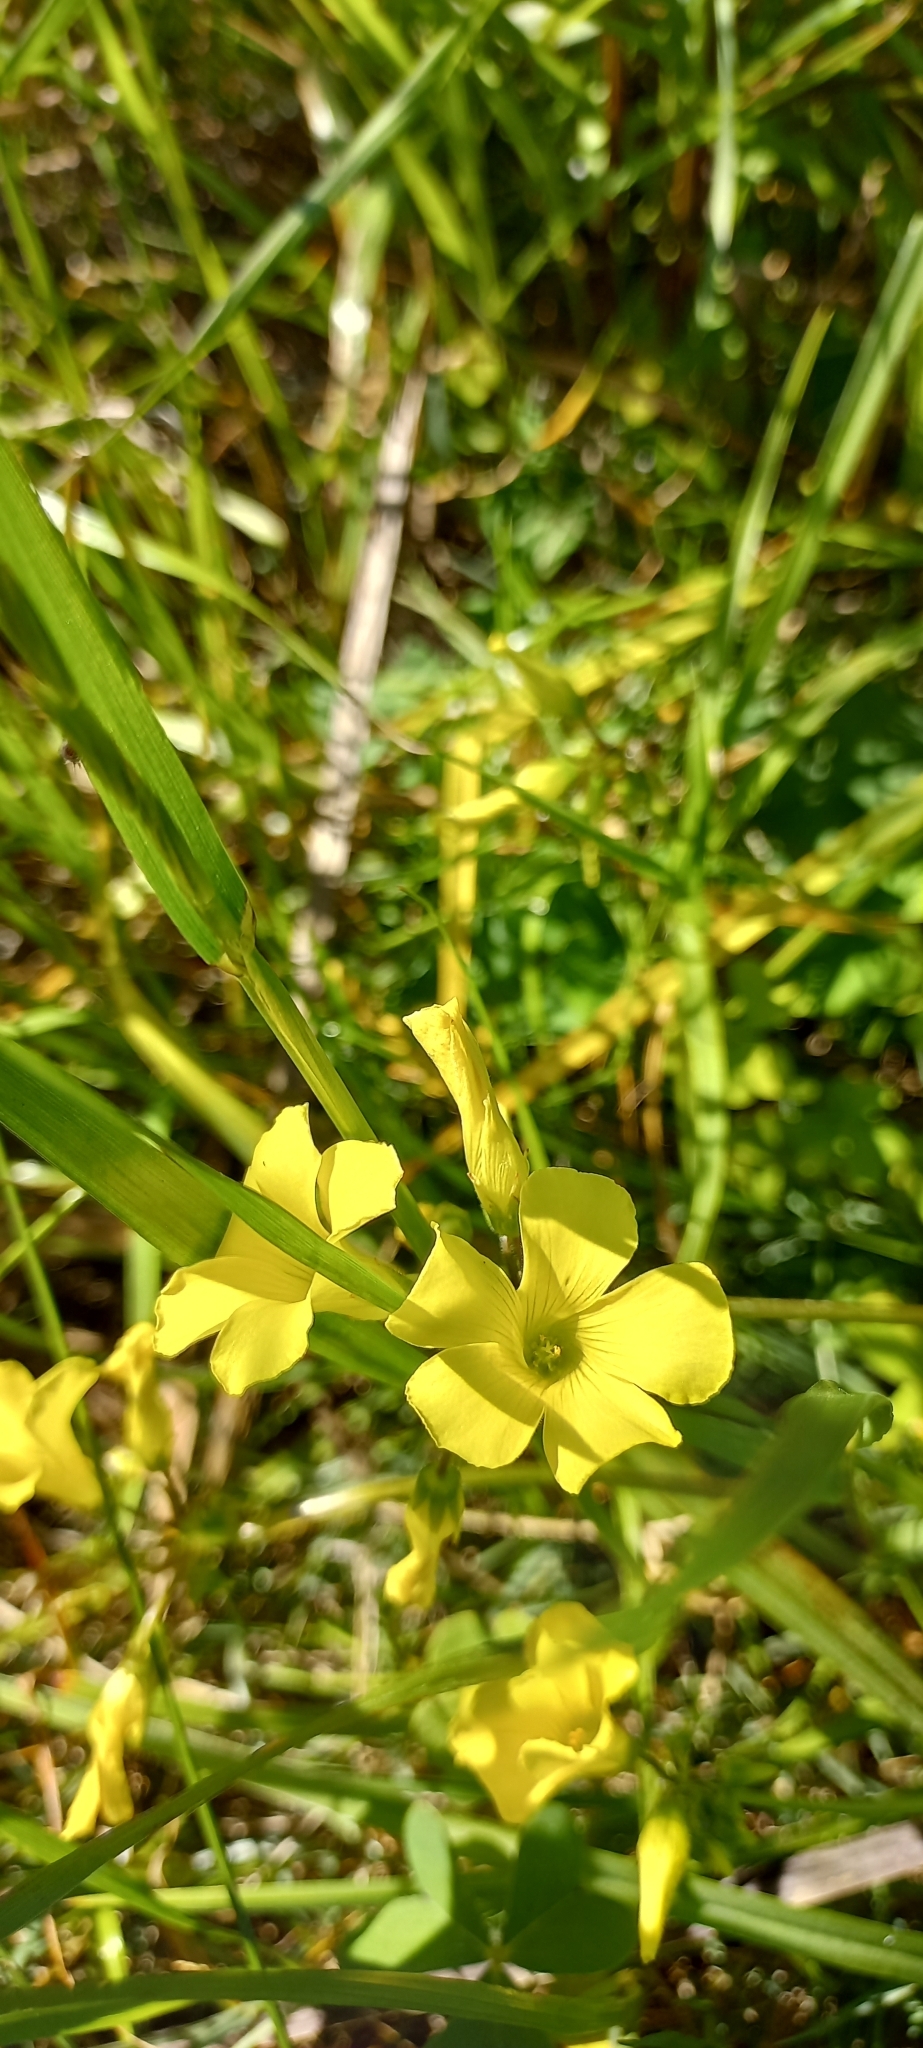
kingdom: Plantae
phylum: Tracheophyta
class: Magnoliopsida
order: Oxalidales
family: Oxalidaceae
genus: Oxalis
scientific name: Oxalis pes-caprae
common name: Bermuda-buttercup
